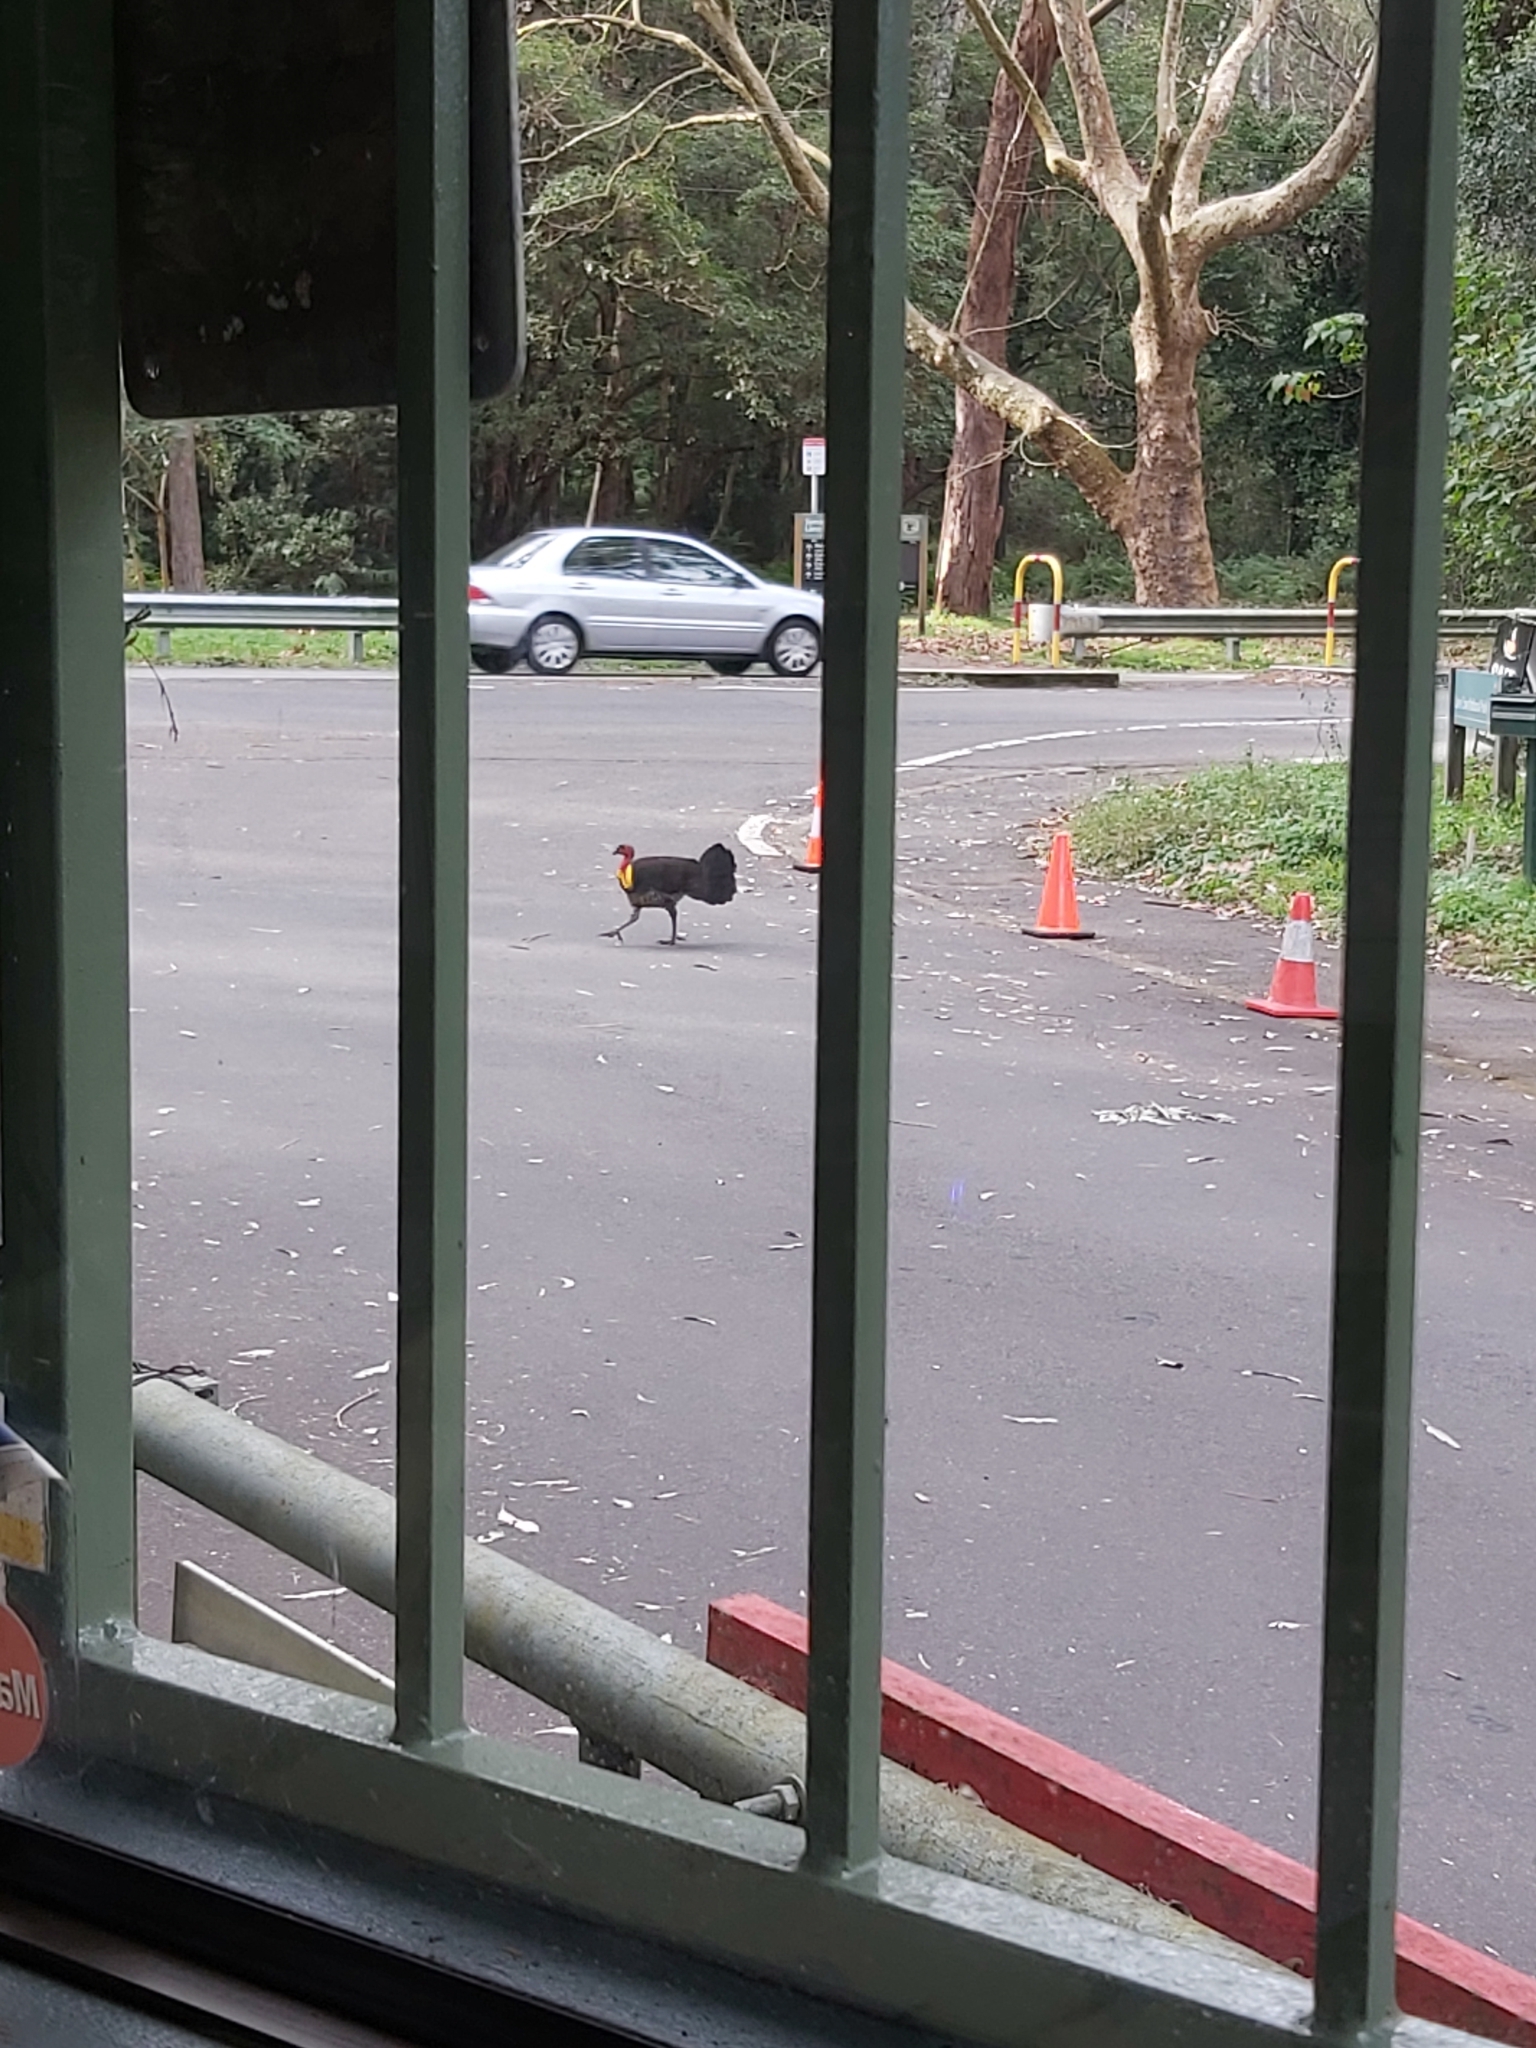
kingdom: Animalia
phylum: Chordata
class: Aves
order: Galliformes
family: Megapodiidae
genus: Alectura
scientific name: Alectura lathami
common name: Australian brushturkey
